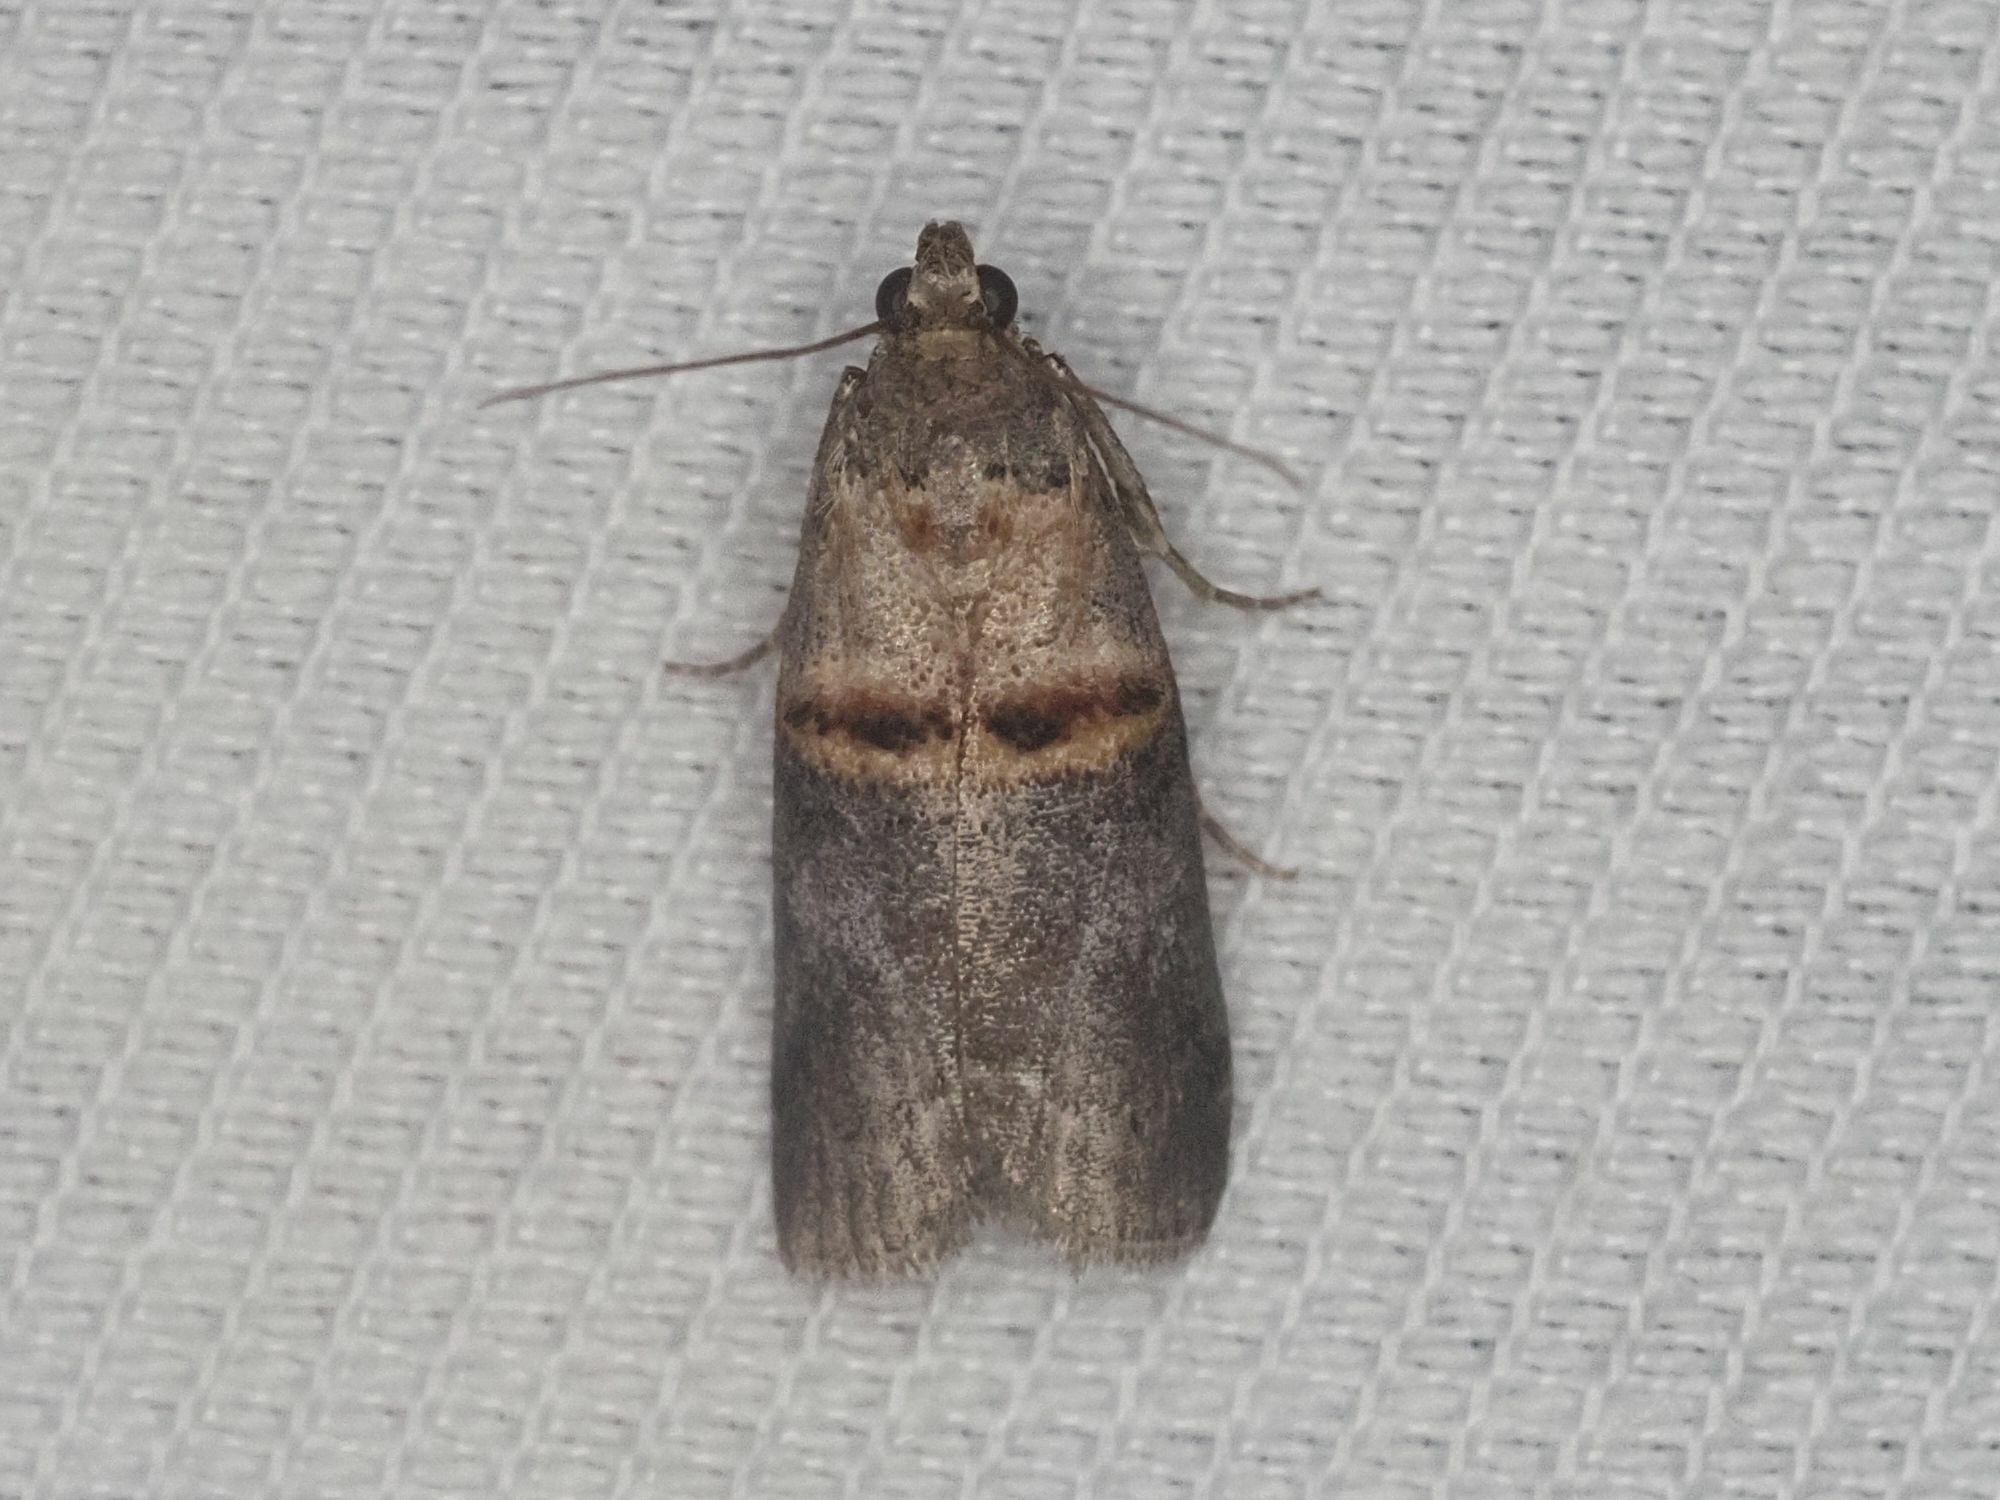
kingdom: Animalia
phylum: Arthropoda
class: Insecta
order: Lepidoptera
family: Pyralidae
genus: Trachonitis
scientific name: Trachonitis cristella
